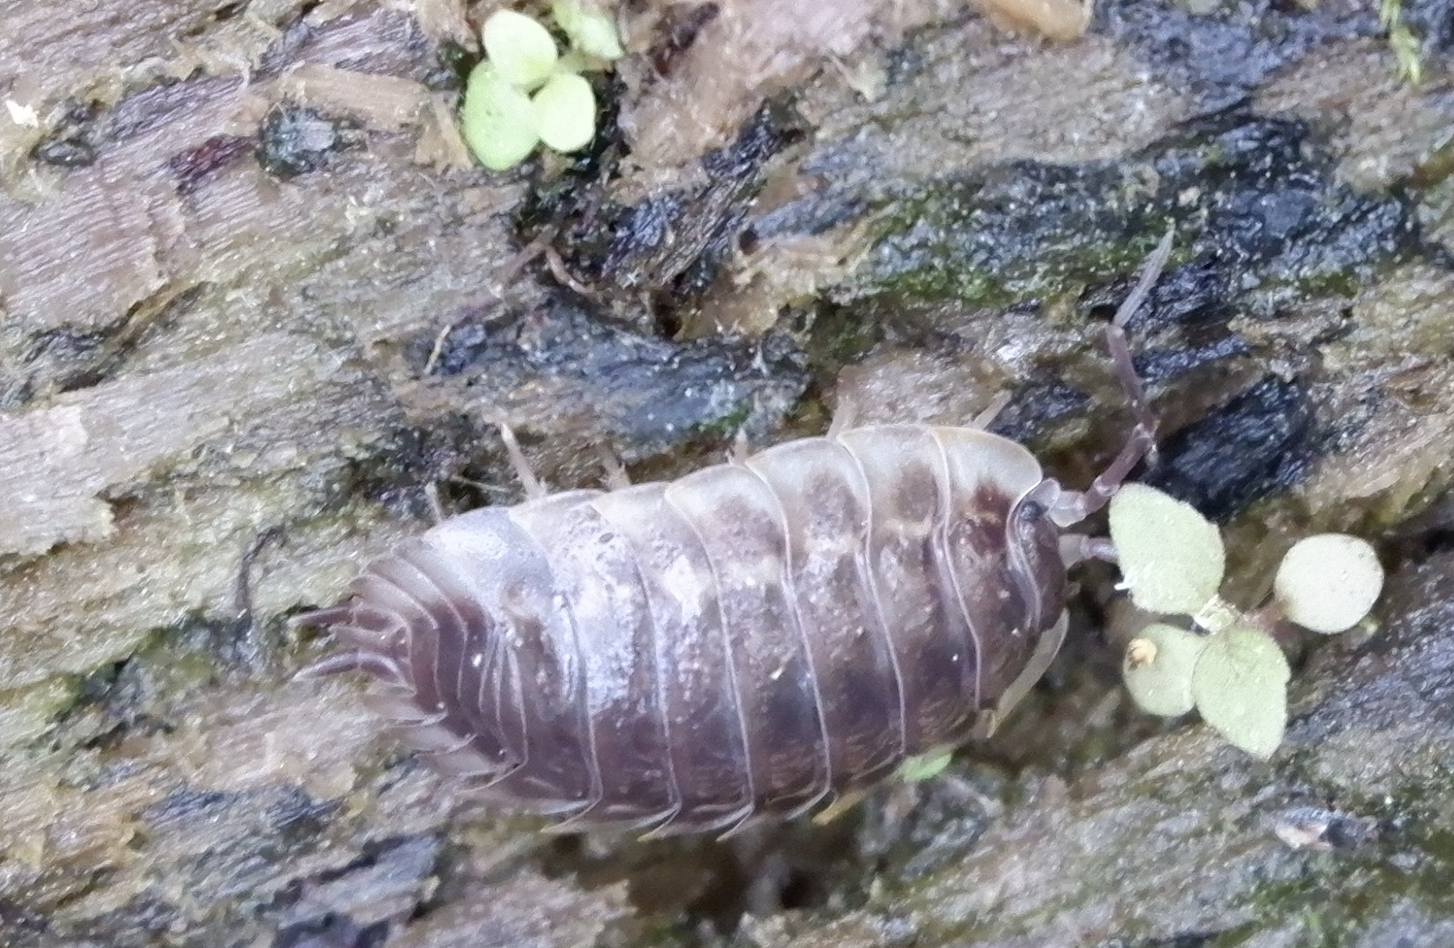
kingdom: Animalia
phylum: Arthropoda
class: Malacostraca
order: Isopoda
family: Oniscidae
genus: Oniscus
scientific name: Oniscus asellus
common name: Common shiny woodlouse
